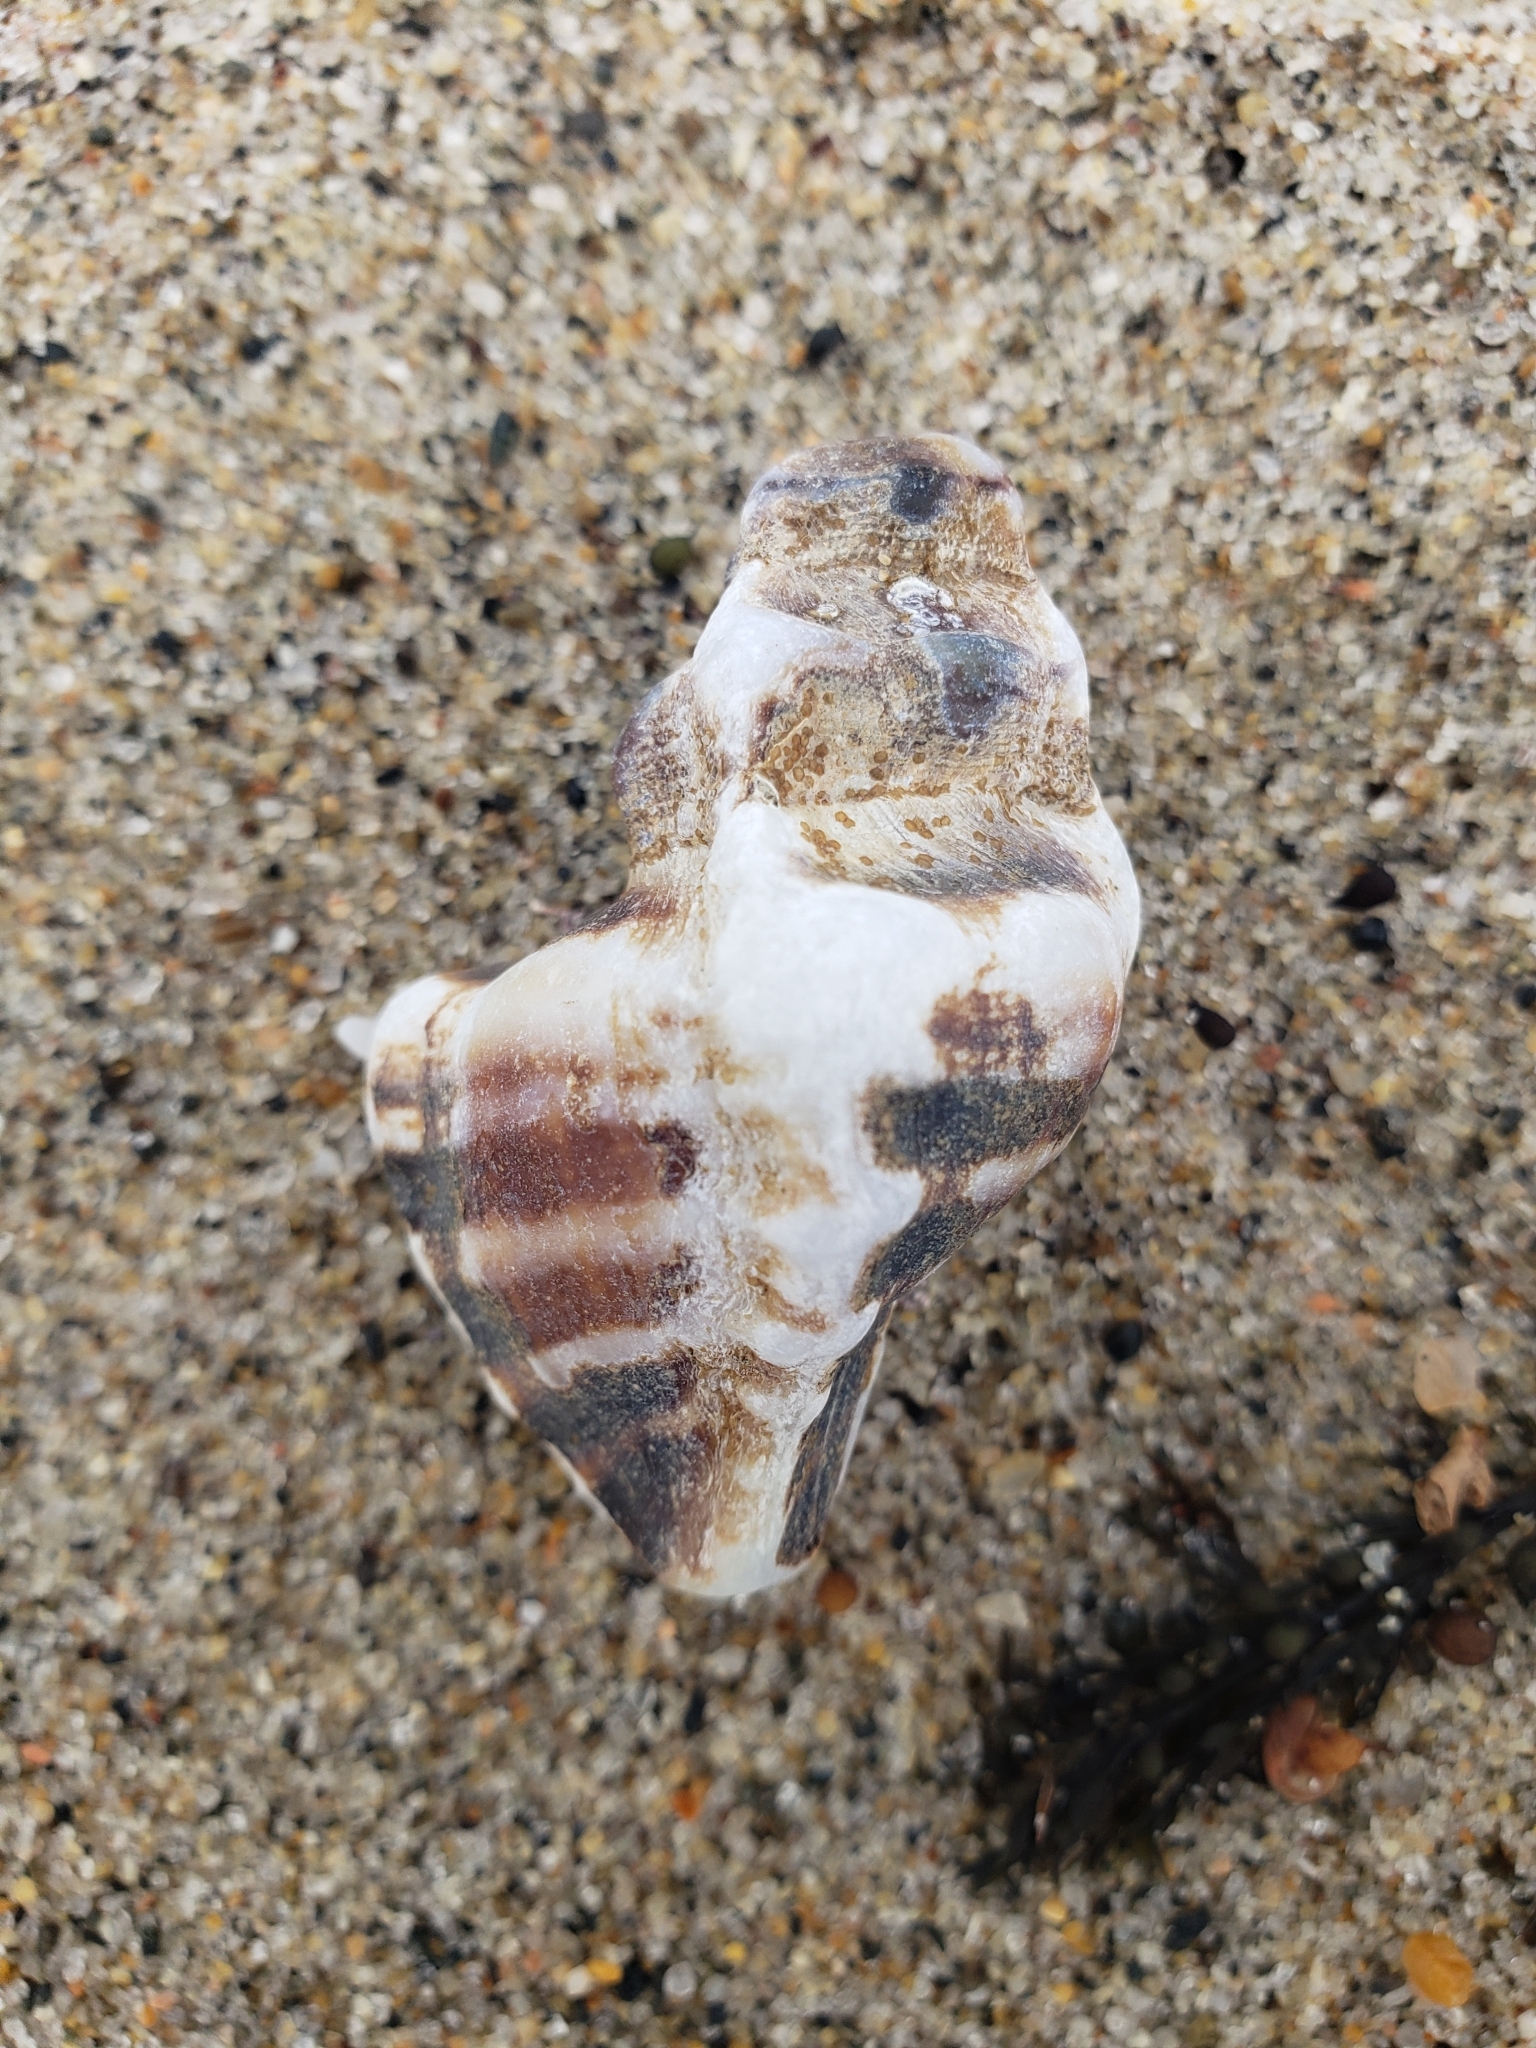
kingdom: Animalia
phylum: Mollusca
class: Gastropoda
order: Neogastropoda
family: Muricidae
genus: Pteropurpura
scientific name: Pteropurpura trialata
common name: Three-winged murex
